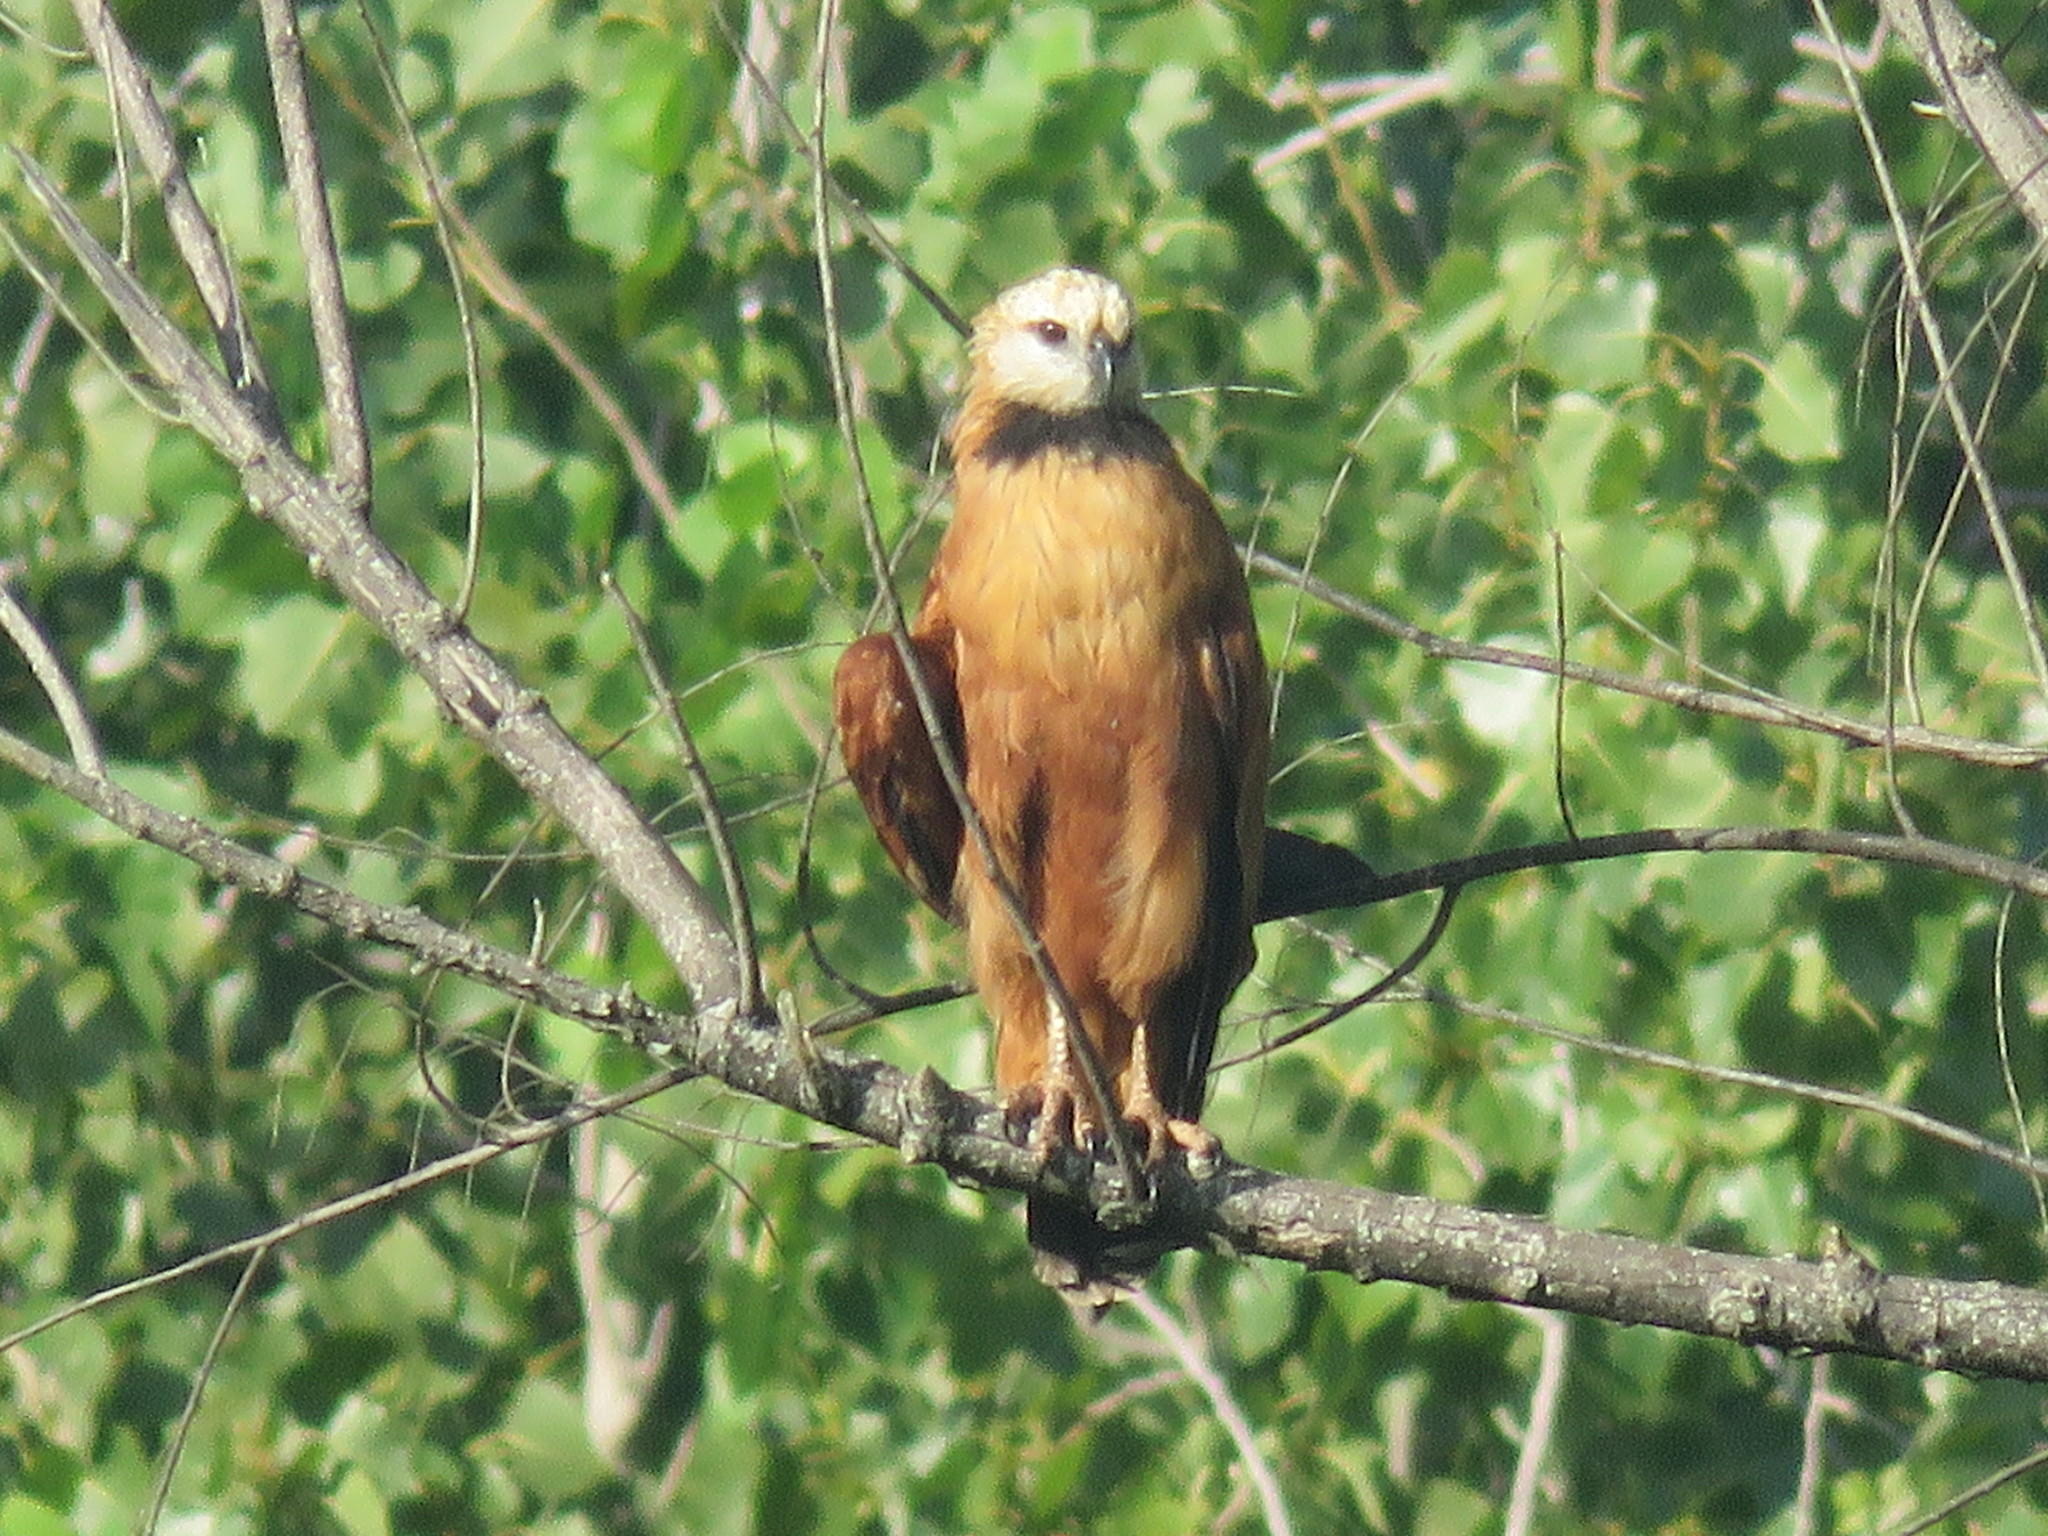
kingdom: Animalia
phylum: Chordata
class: Aves
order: Accipitriformes
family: Accipitridae
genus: Busarellus
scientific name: Busarellus nigricollis
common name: Black-collared hawk
